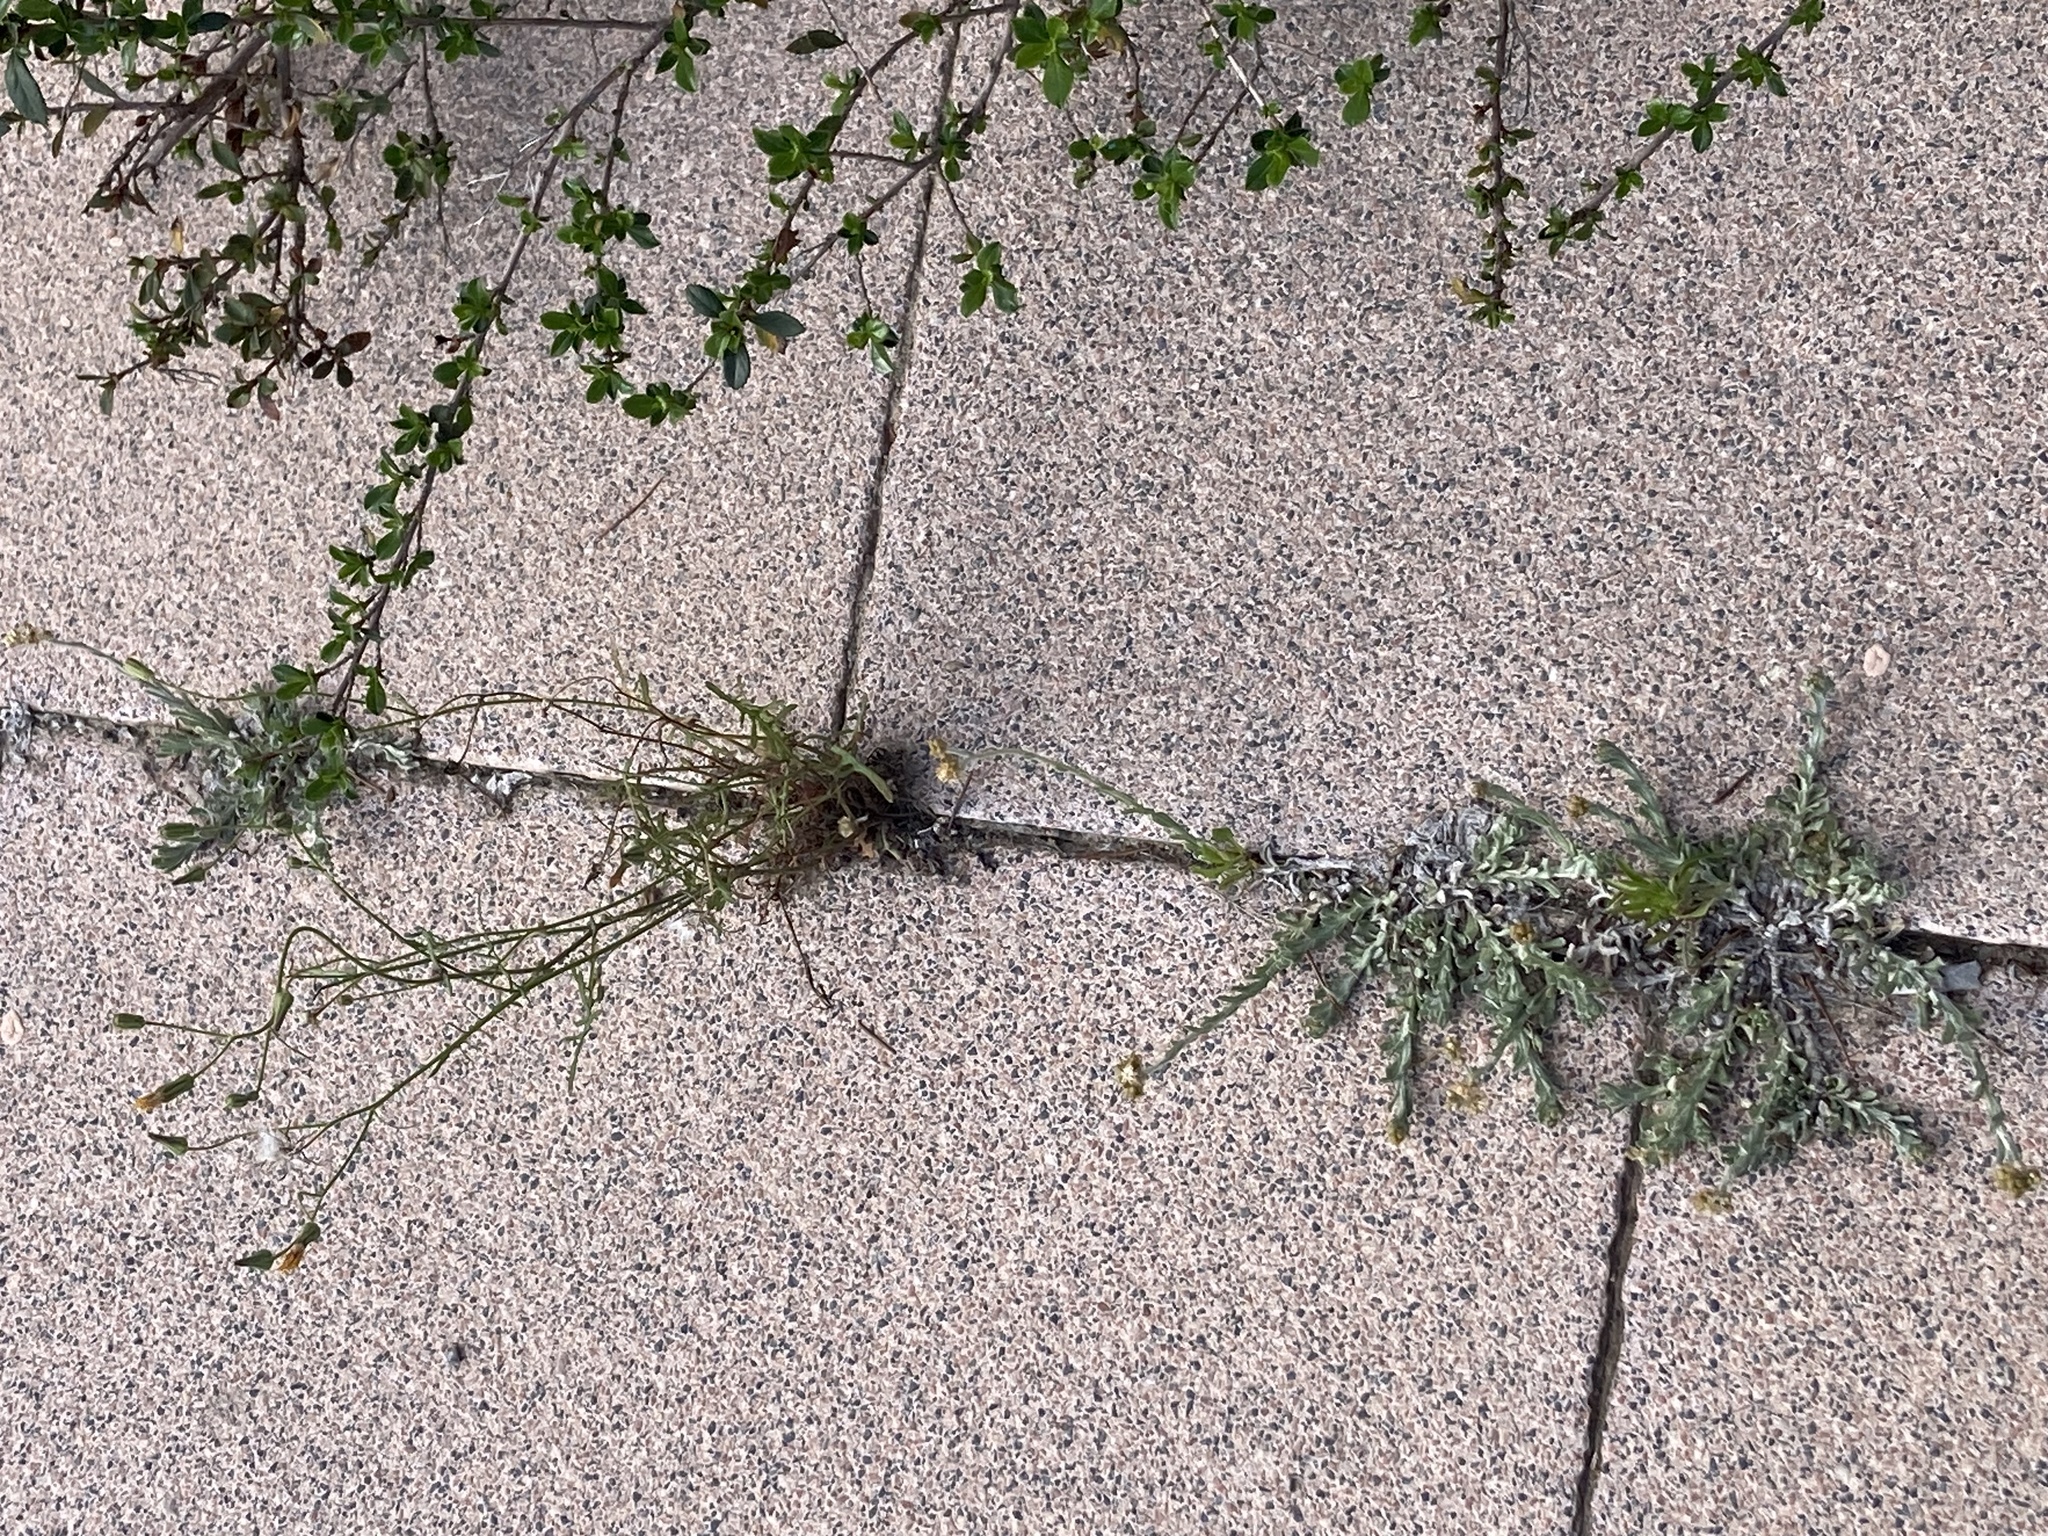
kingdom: Plantae
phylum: Tracheophyta
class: Magnoliopsida
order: Asterales
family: Asteraceae
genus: Helichrysum
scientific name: Helichrysum luteoalbum
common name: Daisy
